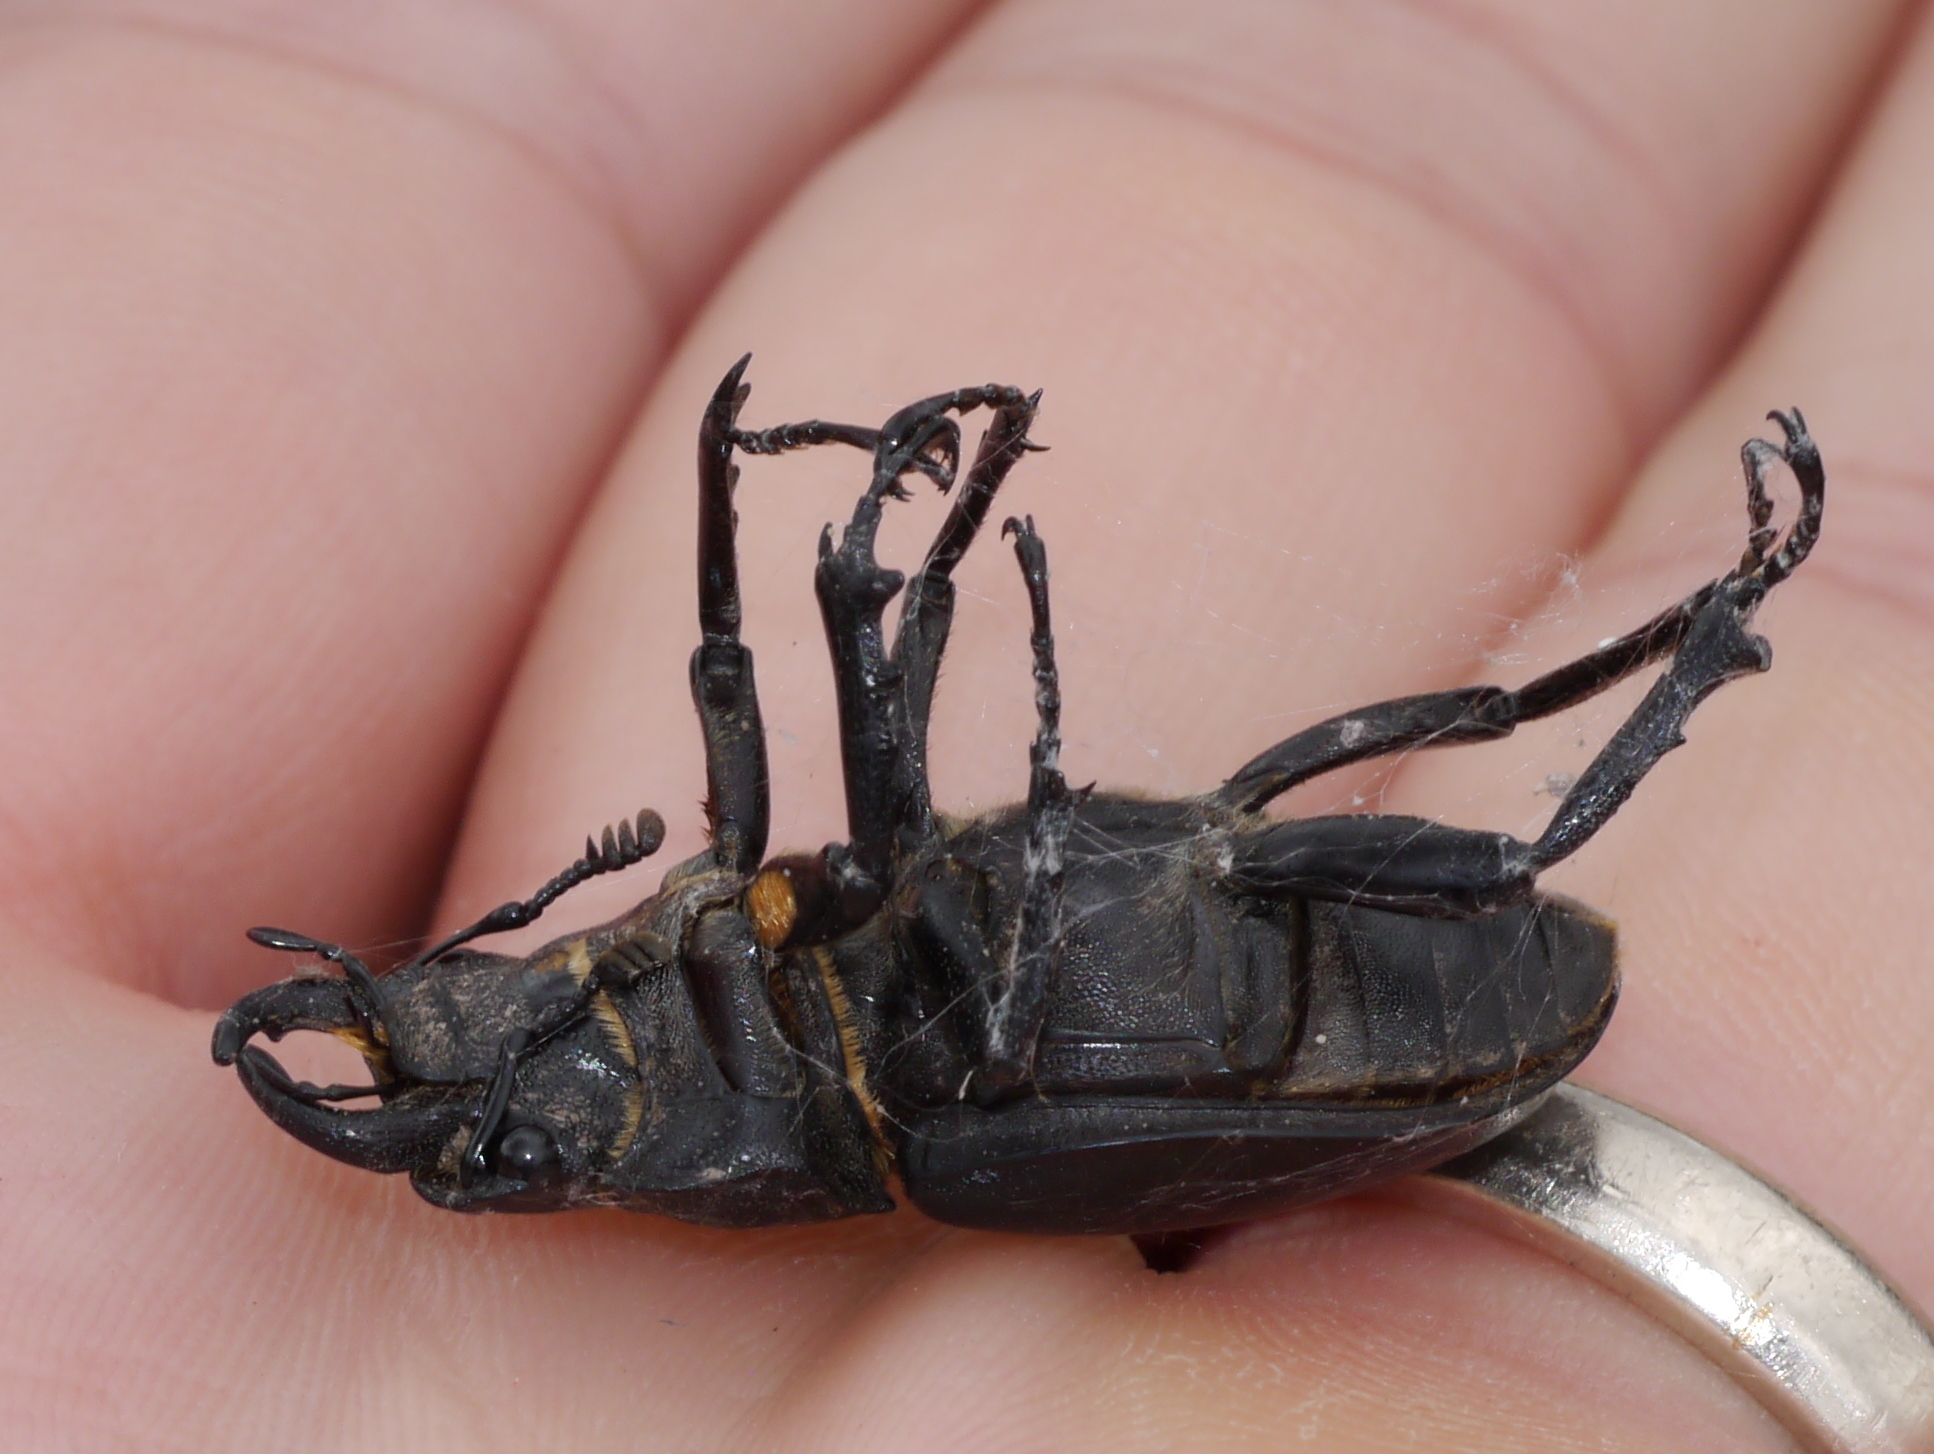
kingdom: Animalia
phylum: Arthropoda
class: Insecta
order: Coleoptera
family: Lucanidae
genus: Lucanus
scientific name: Lucanus mazama
